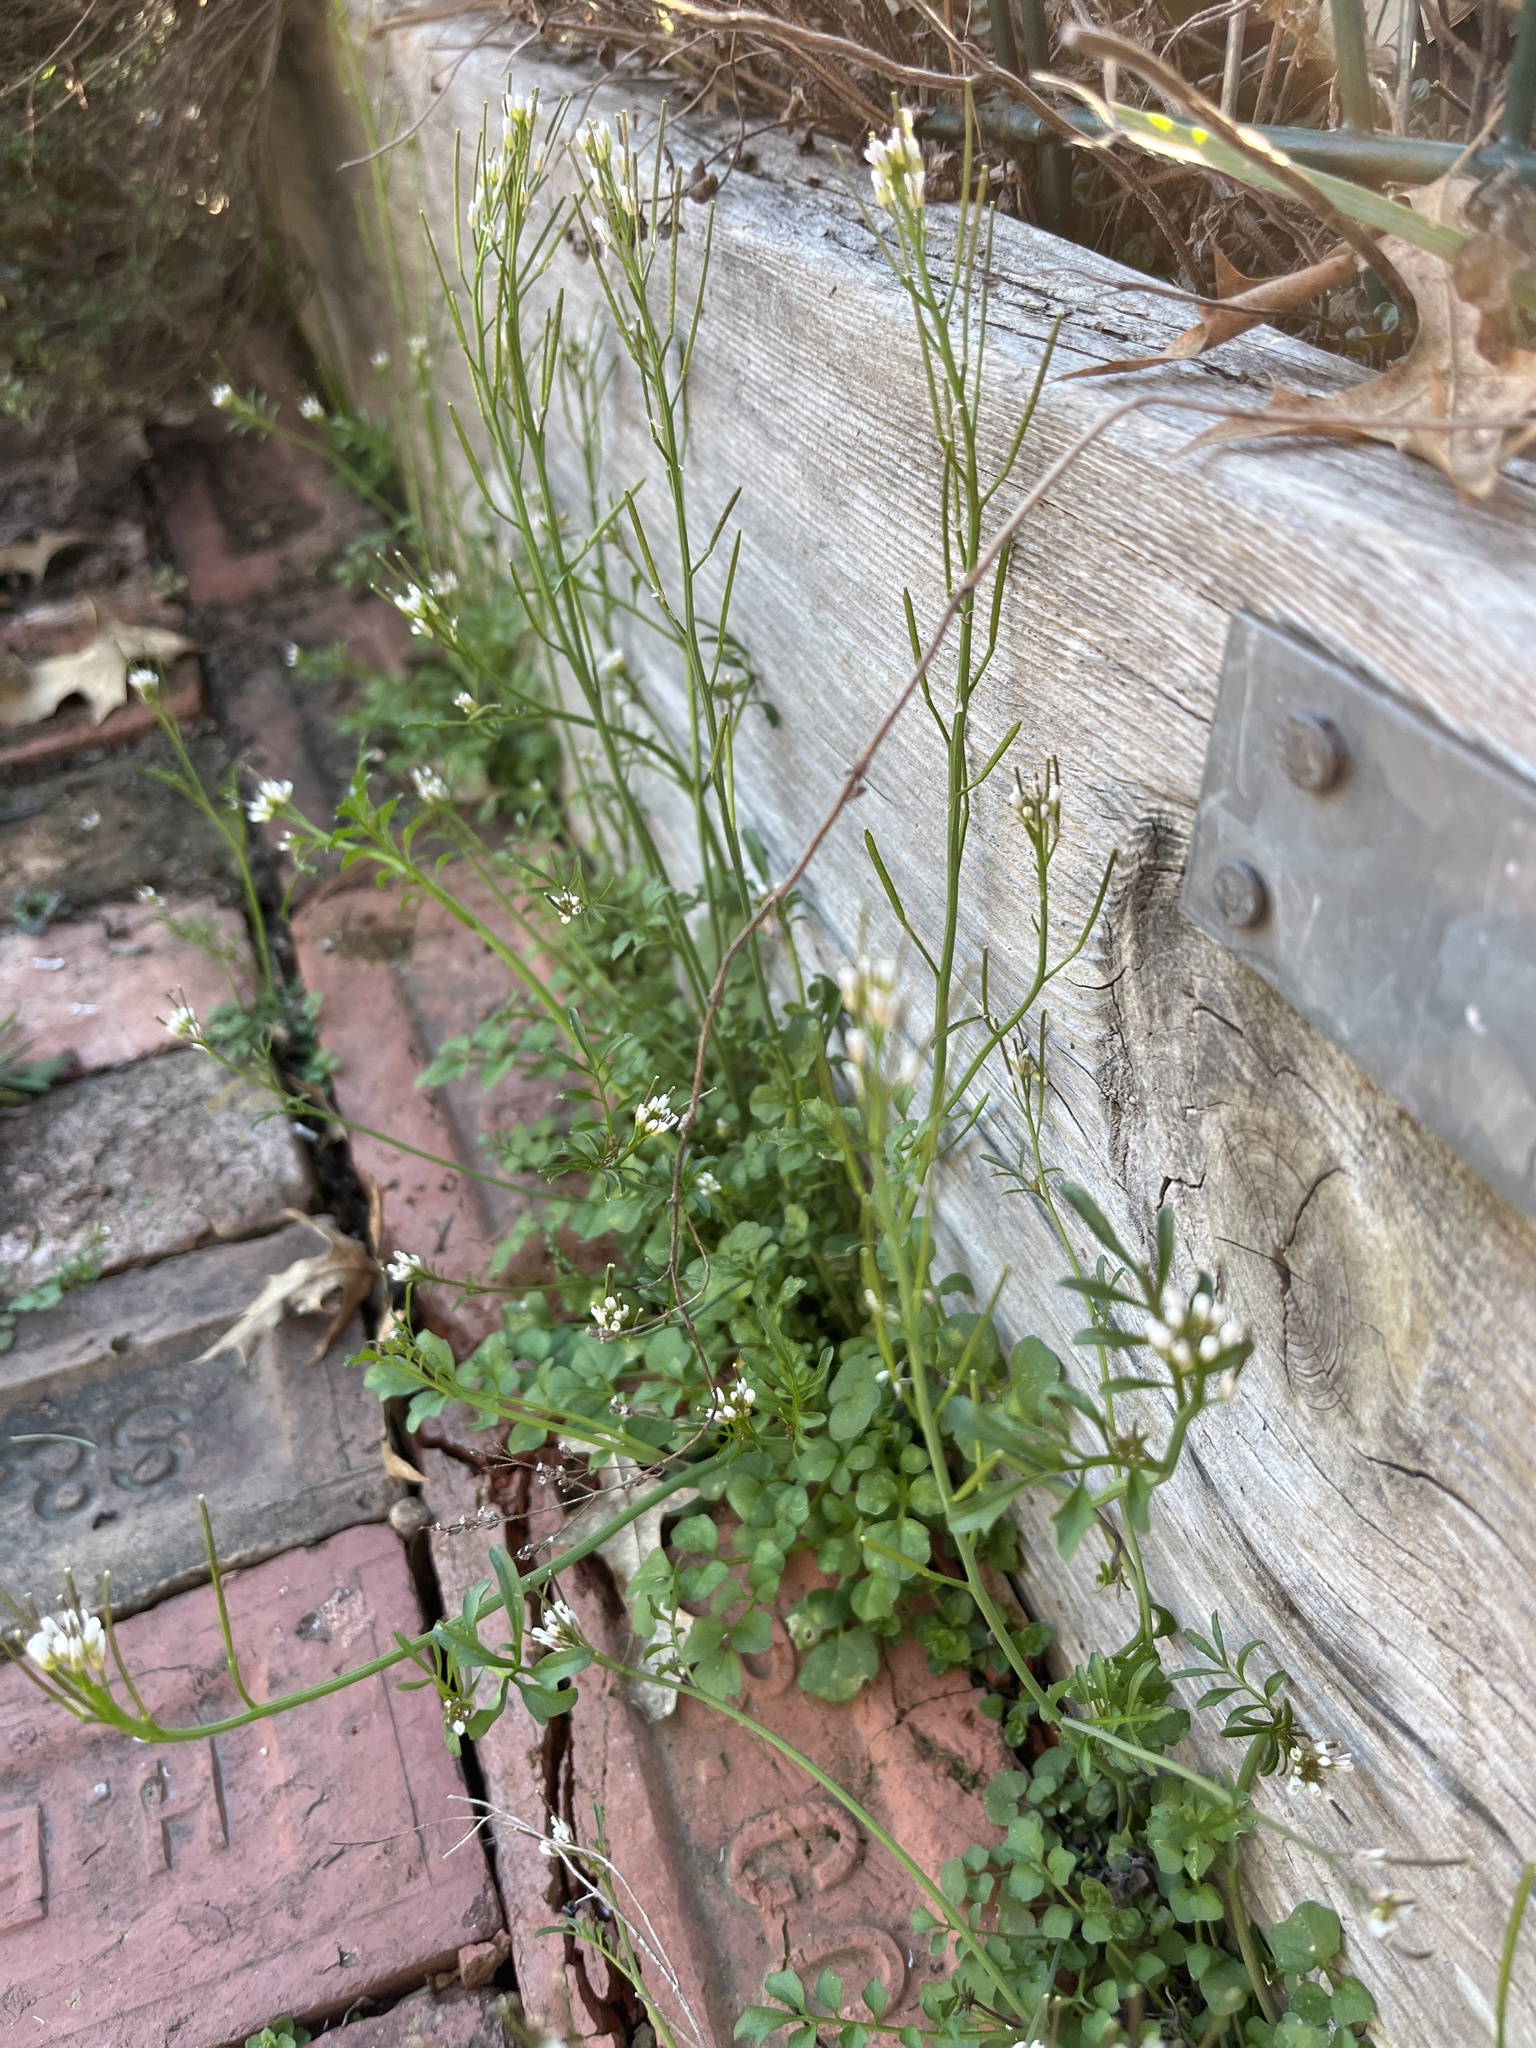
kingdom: Plantae
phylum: Tracheophyta
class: Magnoliopsida
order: Brassicales
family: Brassicaceae
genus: Cardamine
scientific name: Cardamine hirsuta
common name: Hairy bittercress
